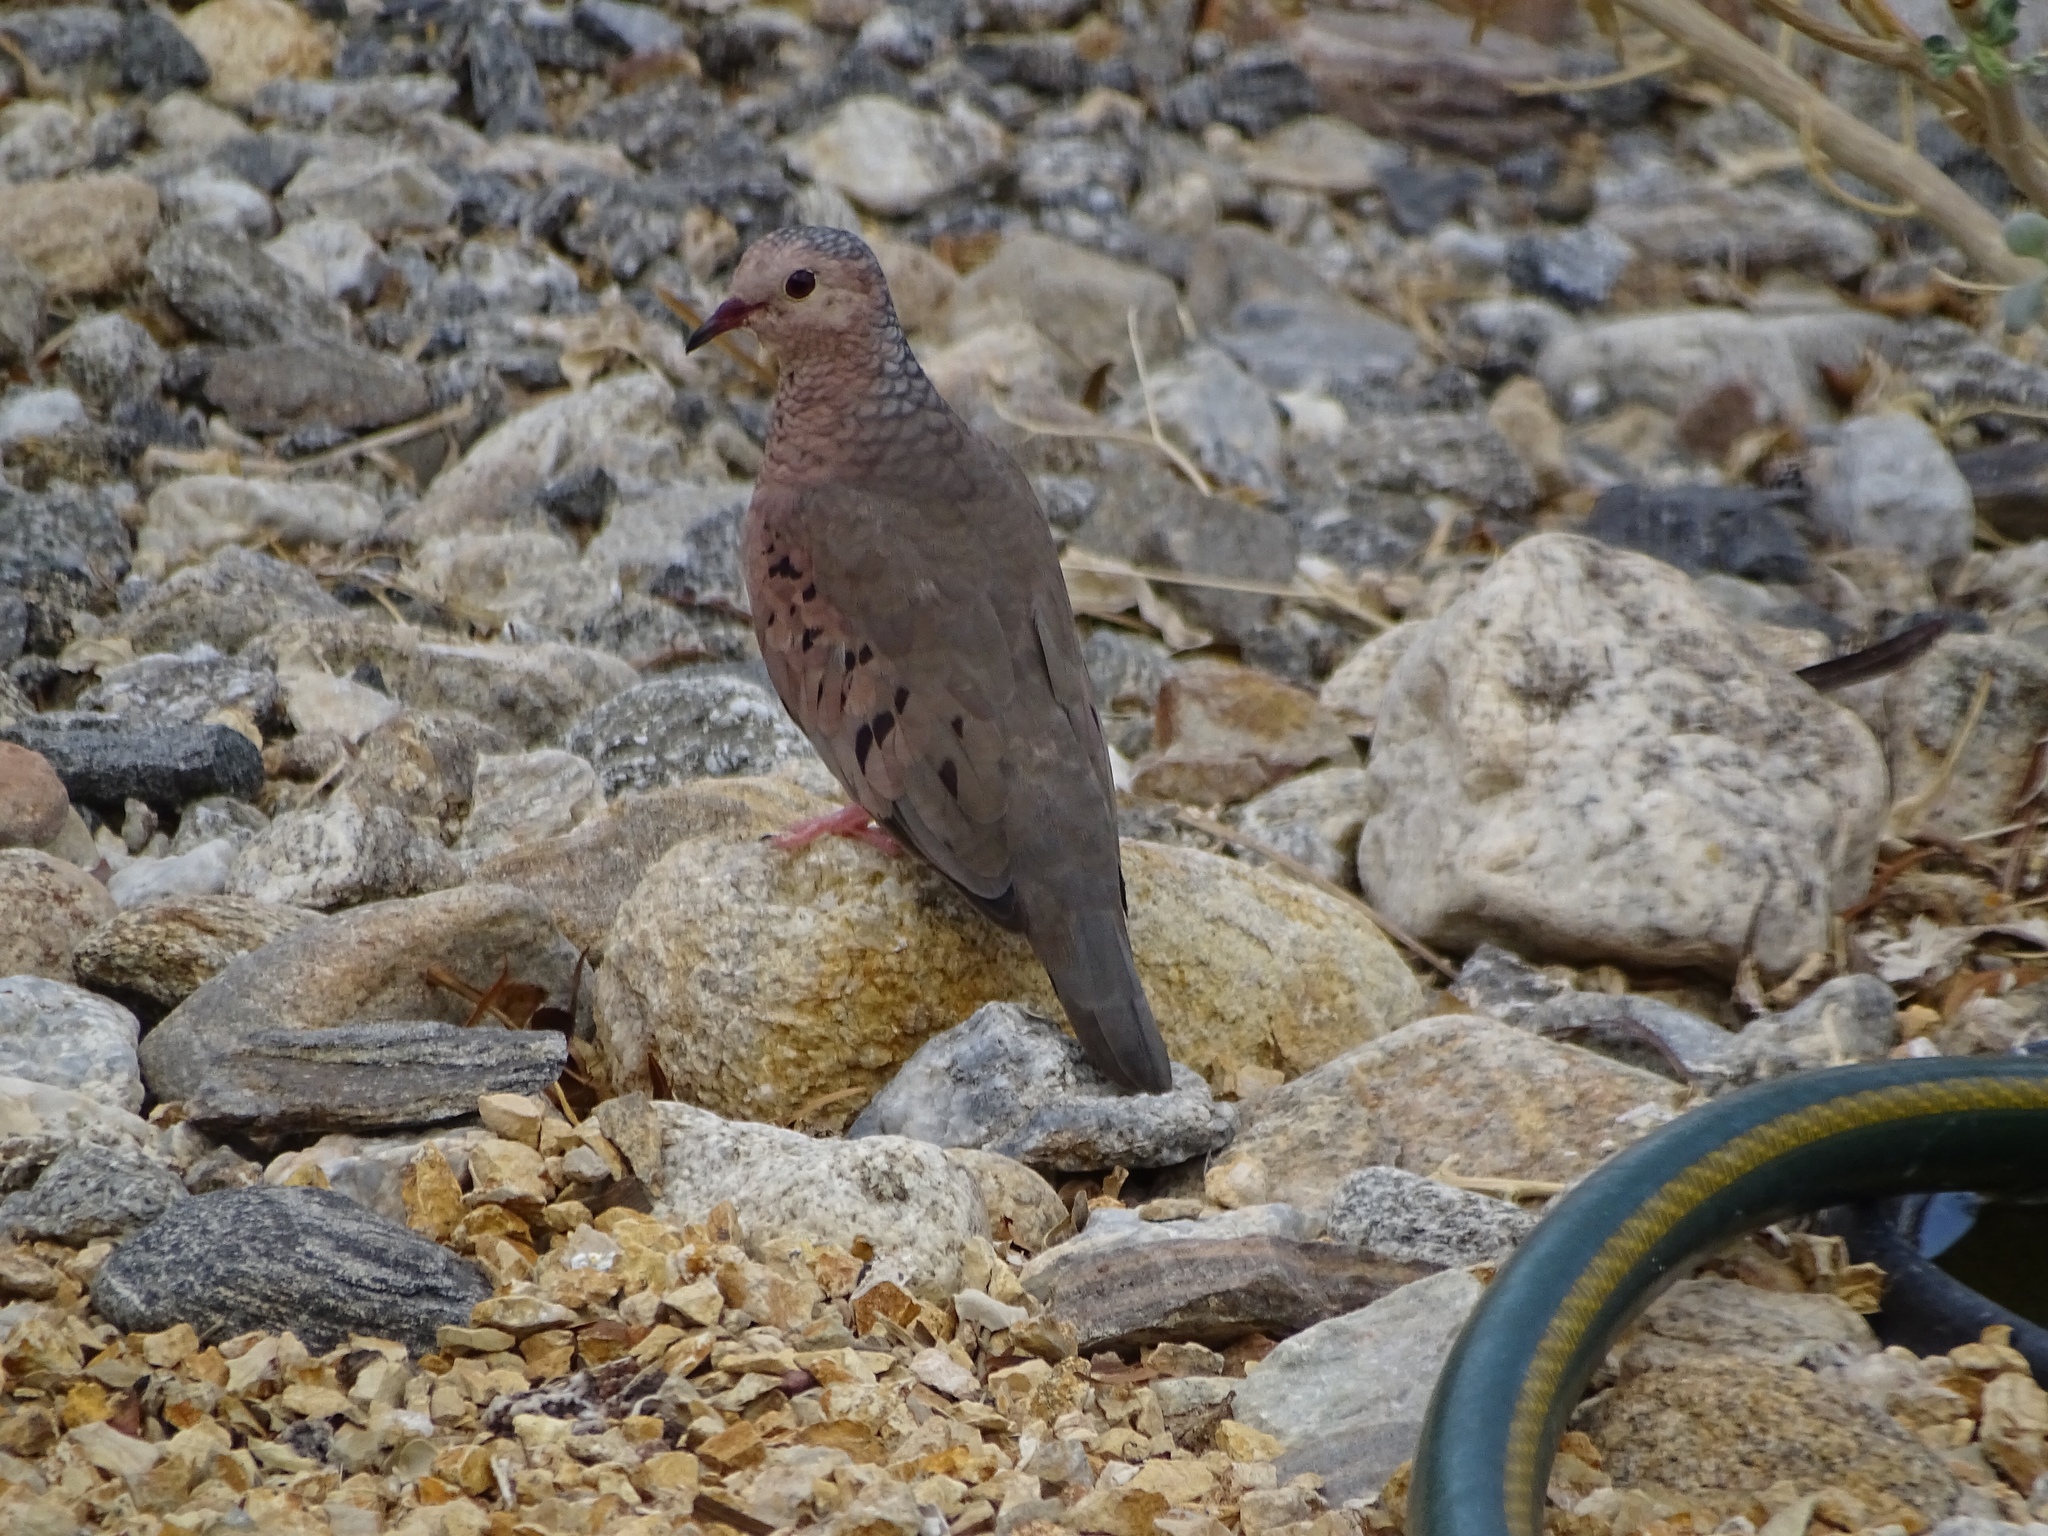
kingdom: Animalia
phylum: Chordata
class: Aves
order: Columbiformes
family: Columbidae
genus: Columbina
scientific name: Columbina passerina
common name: Common ground-dove
